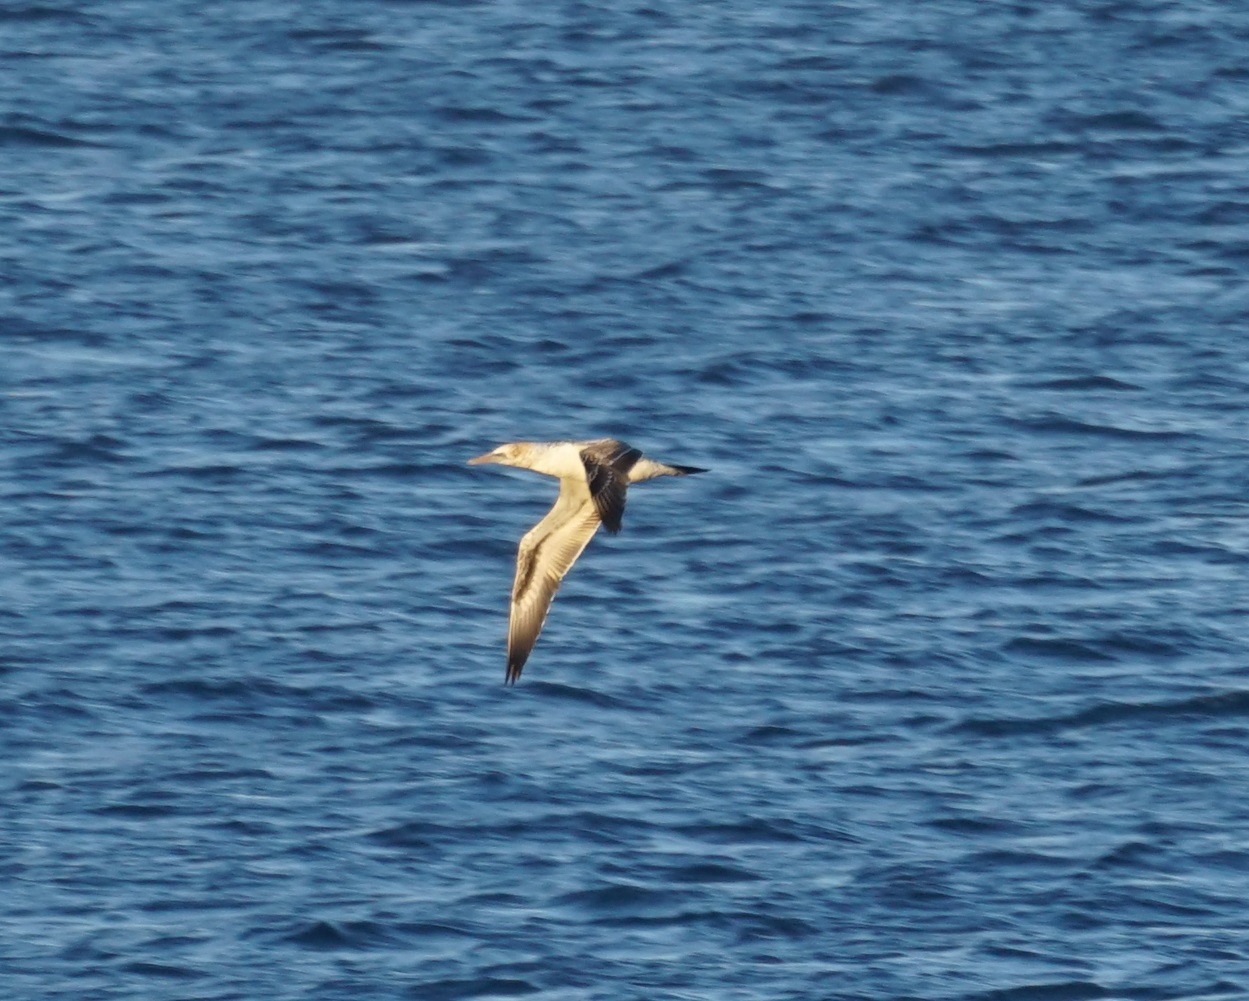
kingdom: Animalia
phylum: Chordata
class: Aves
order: Suliformes
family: Sulidae
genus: Morus
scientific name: Morus serrator
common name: Australasian gannet
